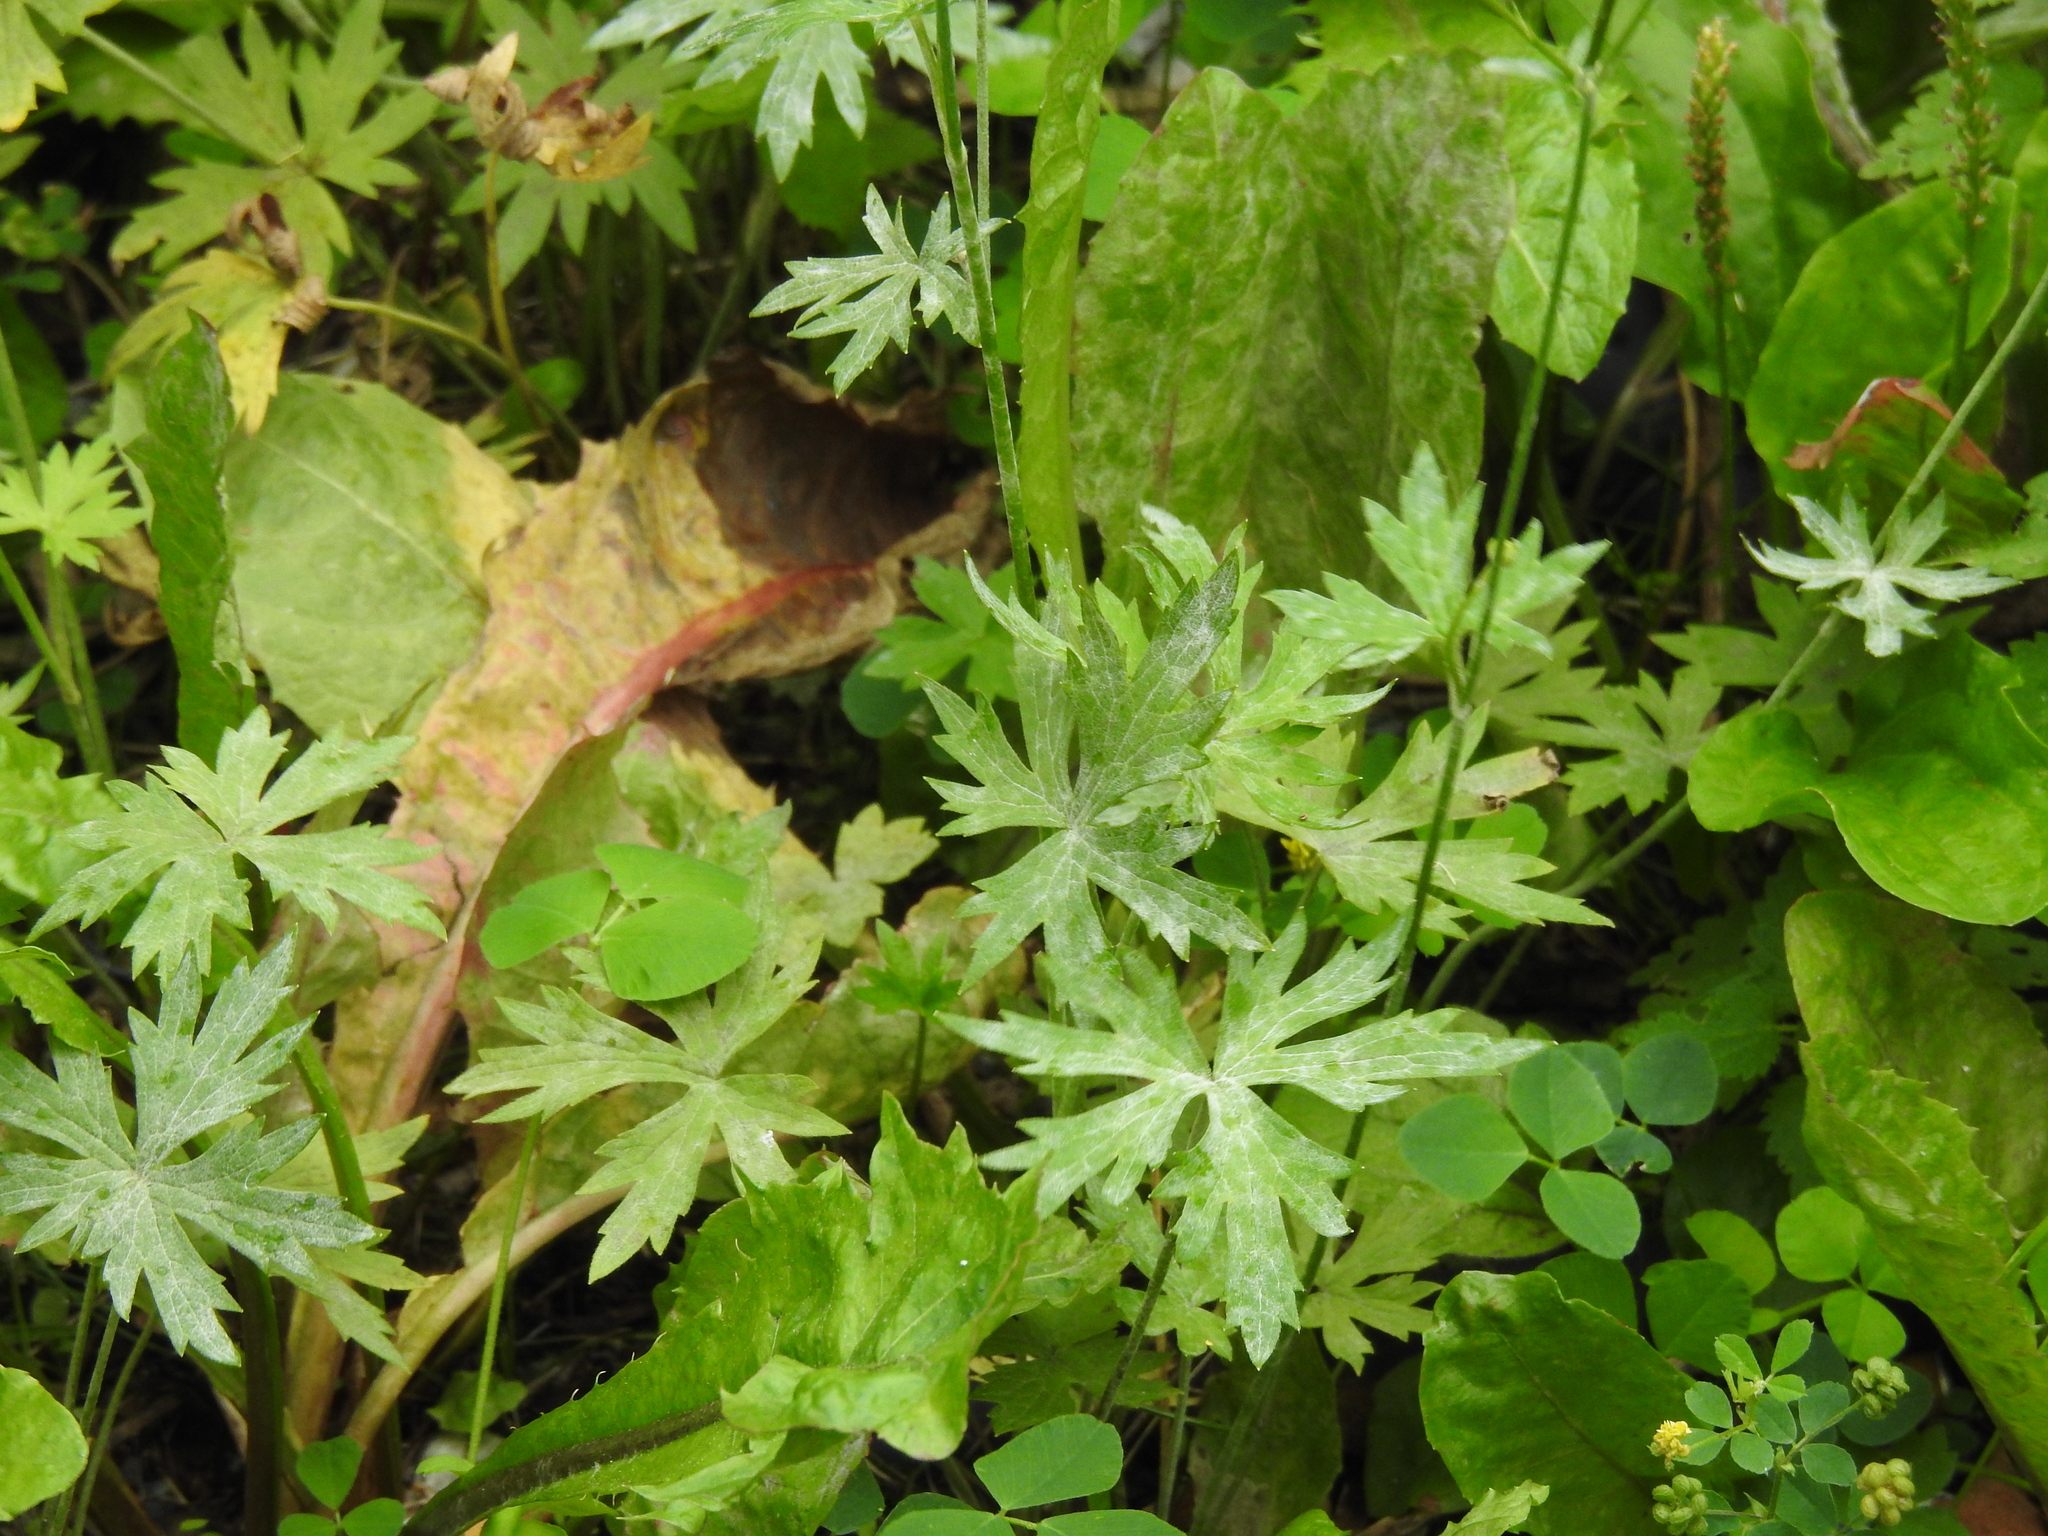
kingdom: Plantae
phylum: Tracheophyta
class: Magnoliopsida
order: Ranunculales
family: Ranunculaceae
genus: Ranunculus
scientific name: Ranunculus acris
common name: Meadow buttercup
